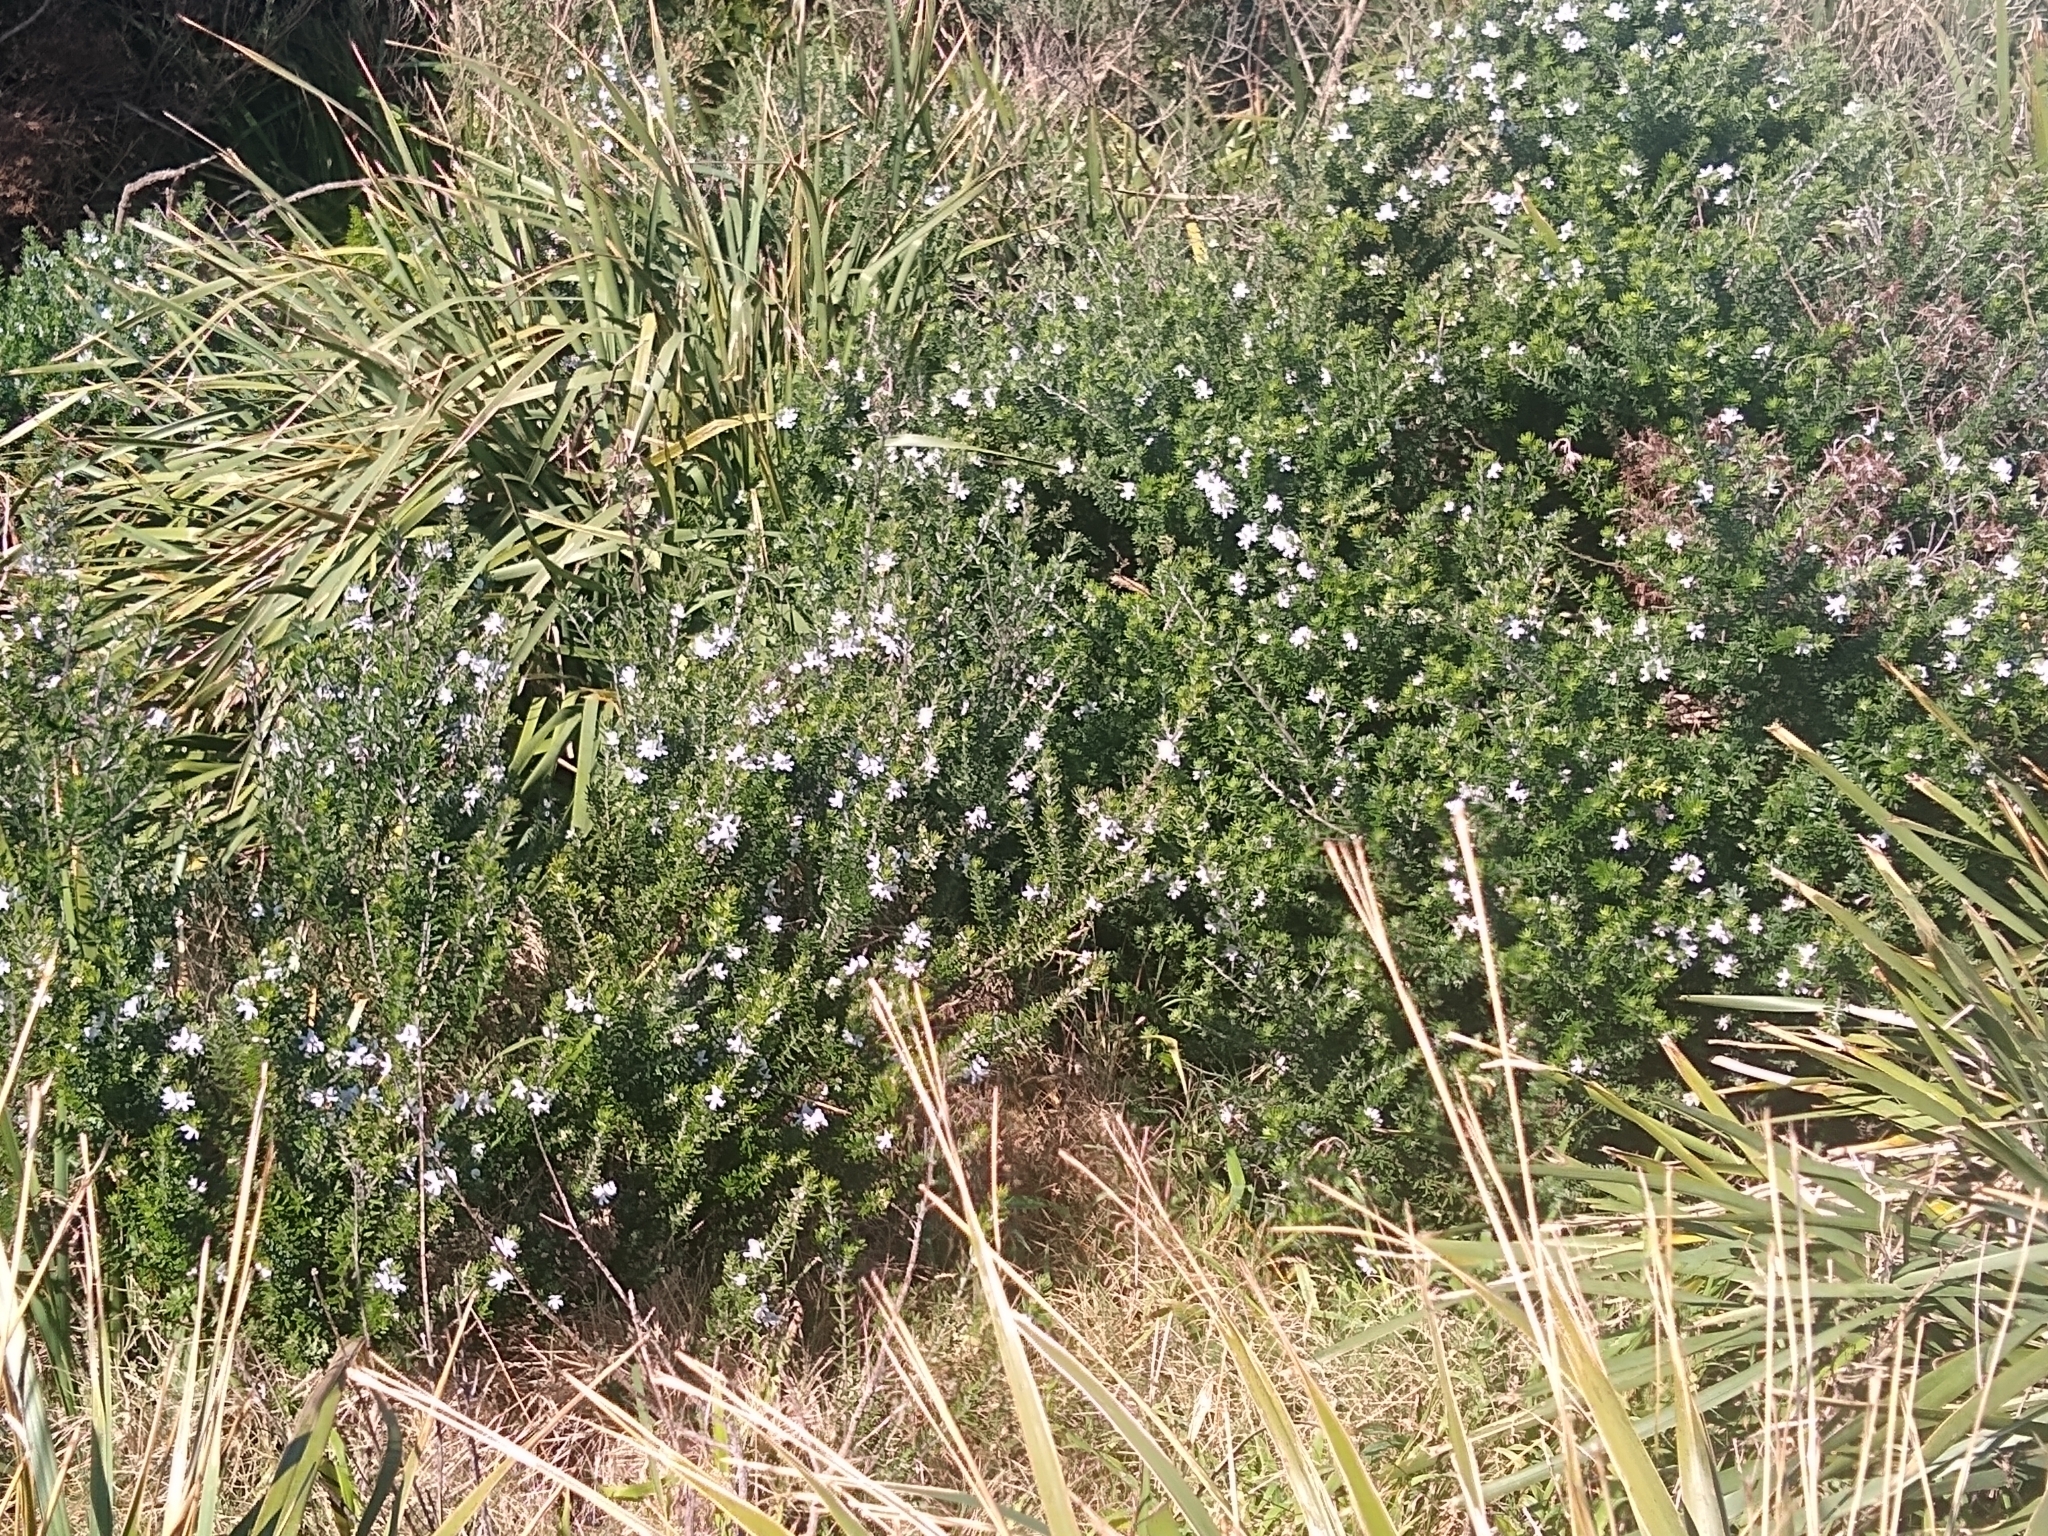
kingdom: Plantae
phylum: Tracheophyta
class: Magnoliopsida
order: Lamiales
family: Lamiaceae
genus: Westringia
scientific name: Westringia fruticosa
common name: Coastal-rosemary
